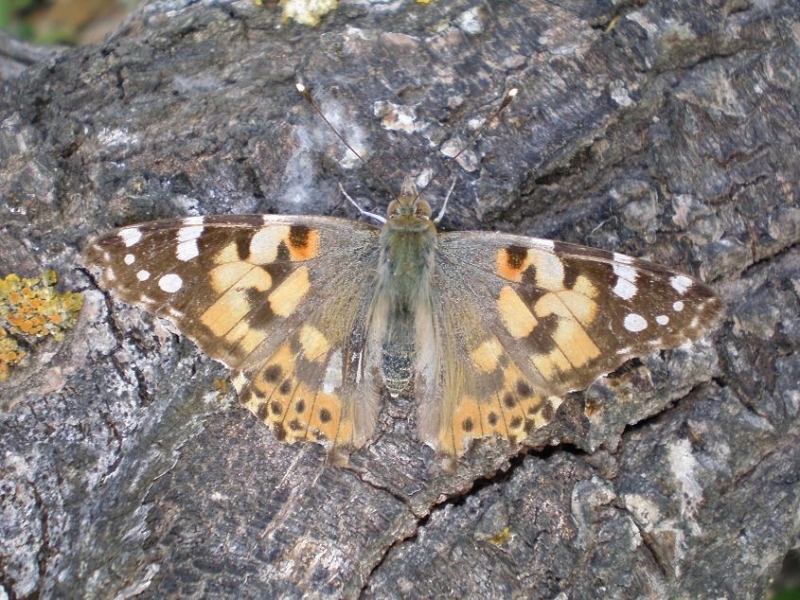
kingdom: Animalia
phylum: Arthropoda
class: Insecta
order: Lepidoptera
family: Nymphalidae
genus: Vanessa
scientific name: Vanessa cardui
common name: Painted lady
